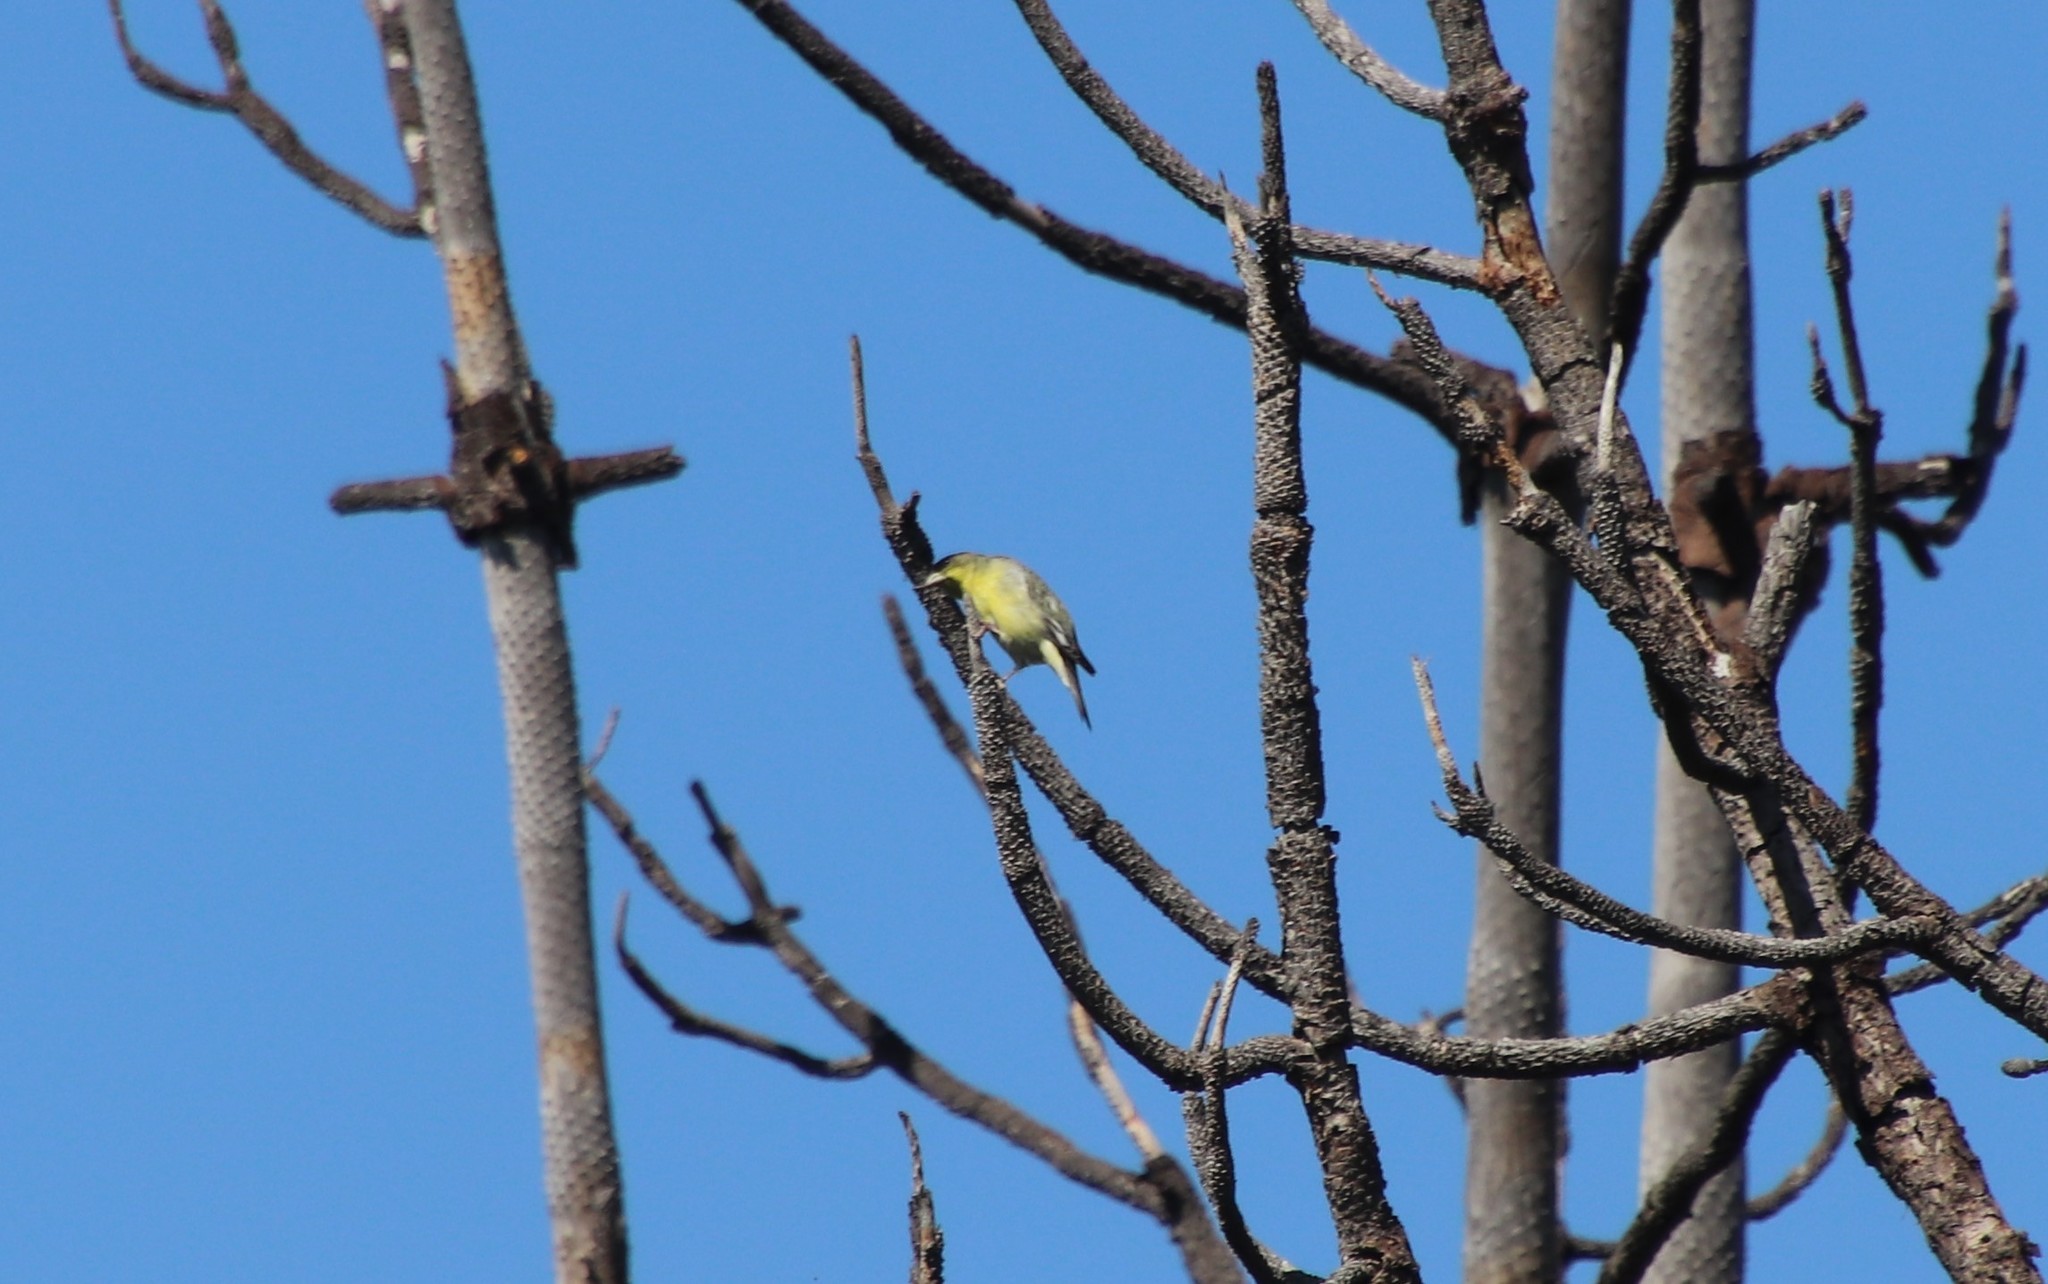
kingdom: Animalia
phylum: Chordata
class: Aves
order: Passeriformes
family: Fringillidae
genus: Spinus
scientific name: Spinus psaltria
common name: Lesser goldfinch
